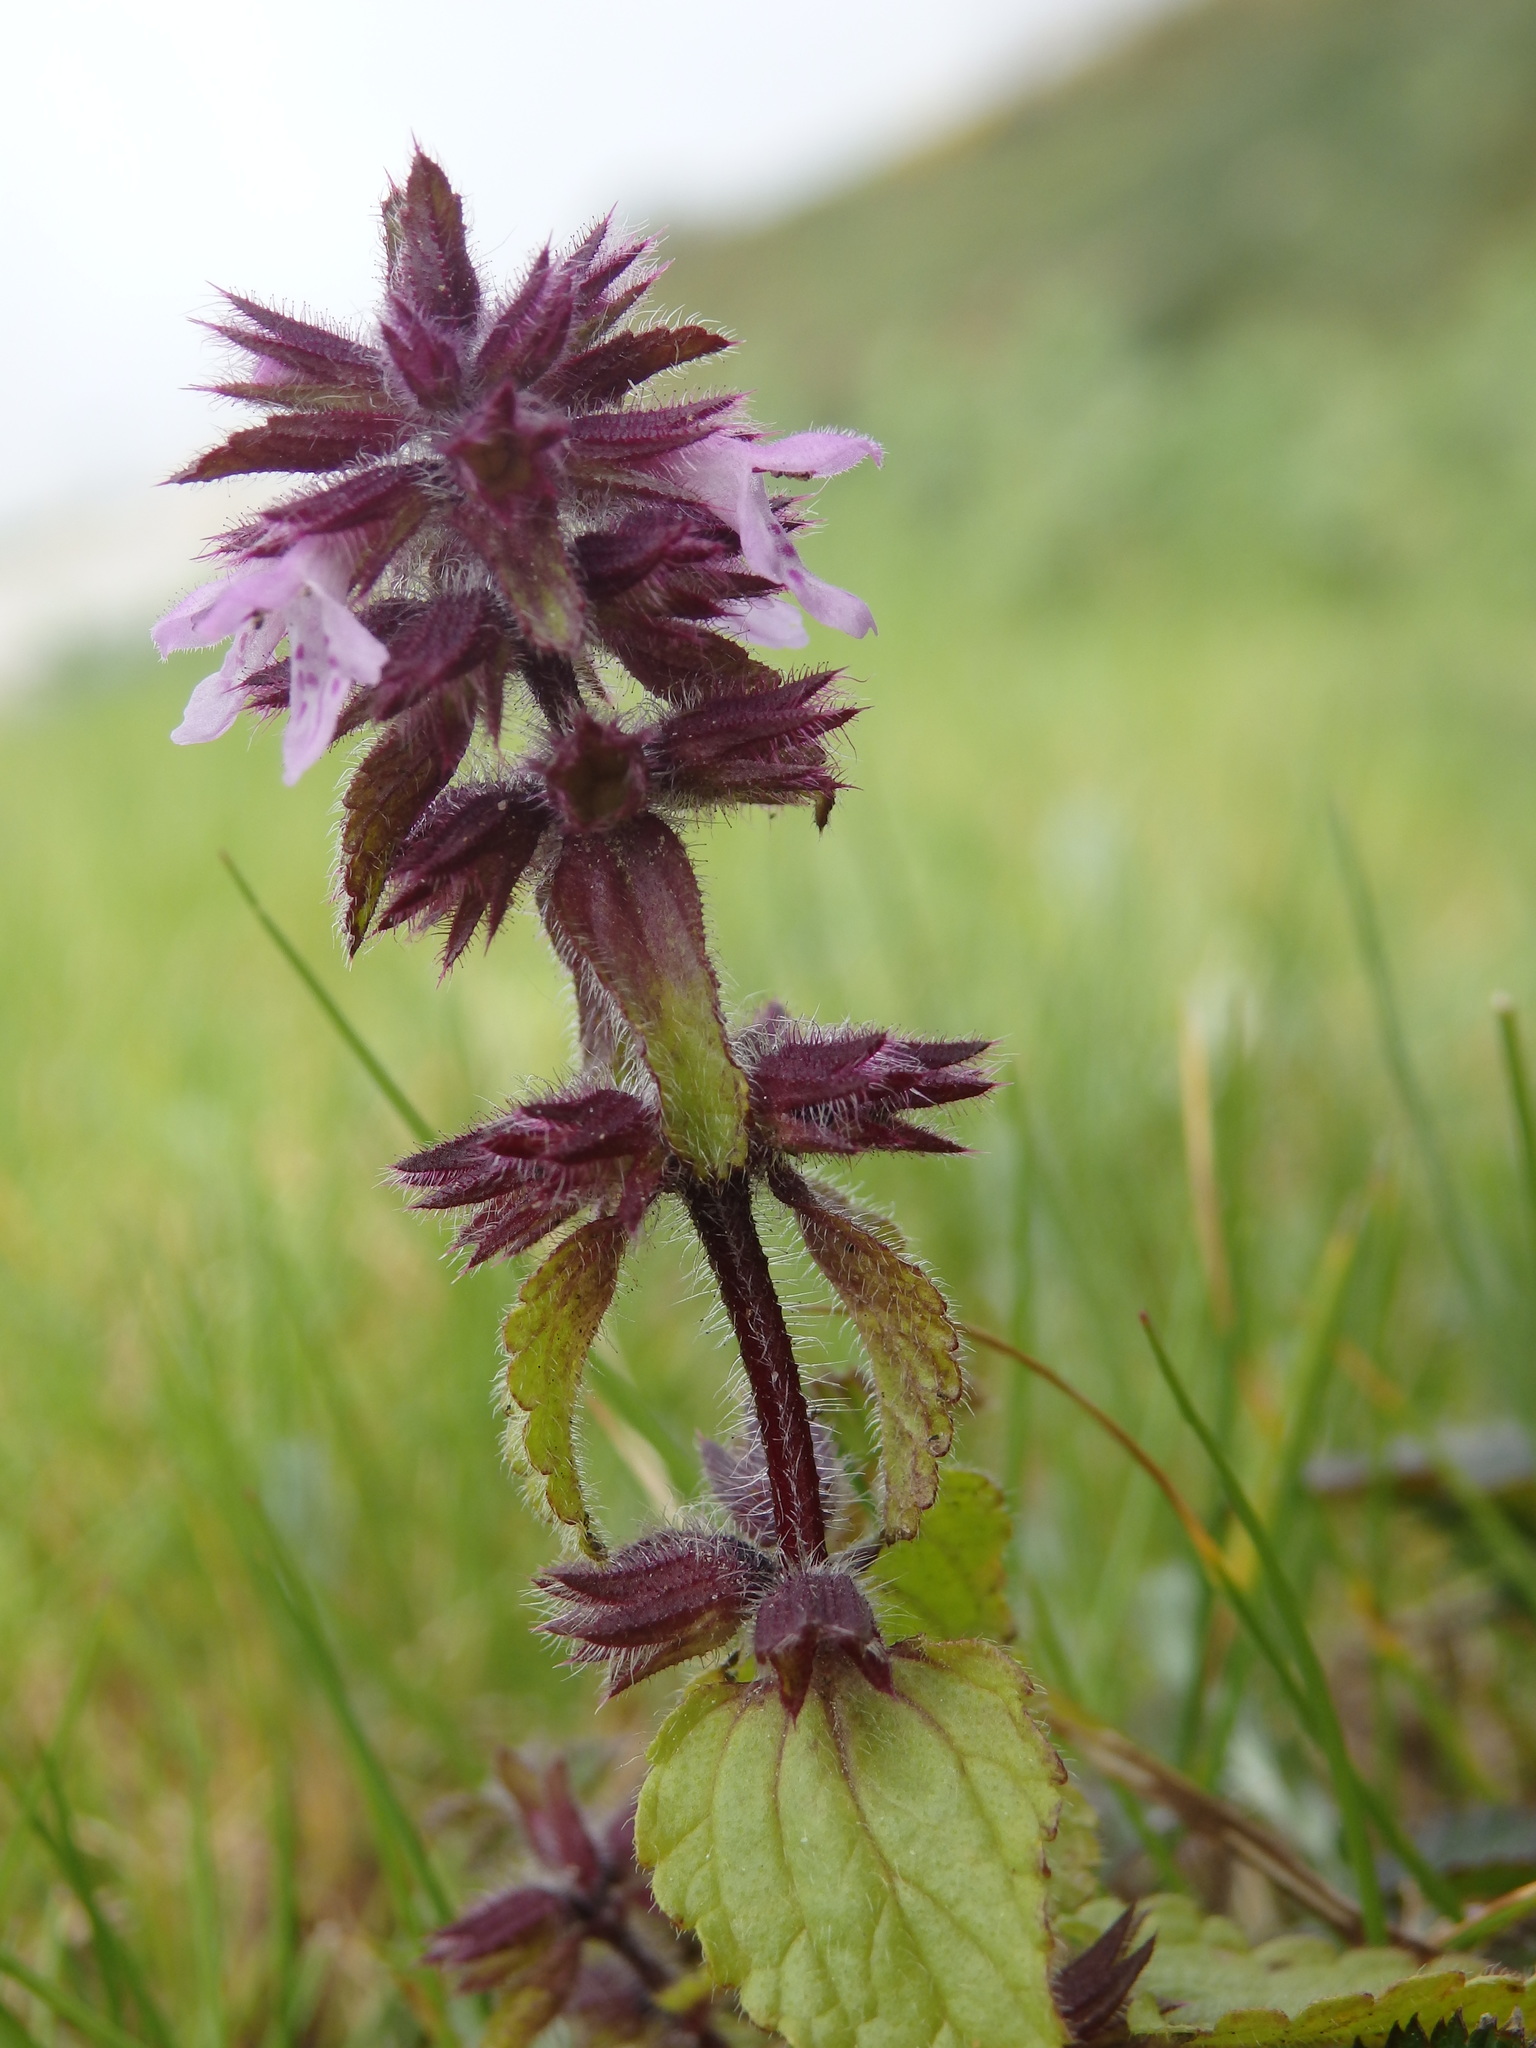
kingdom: Plantae
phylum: Tracheophyta
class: Magnoliopsida
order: Lamiales
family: Lamiaceae
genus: Stachys
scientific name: Stachys arvensis
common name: Field woundwort
